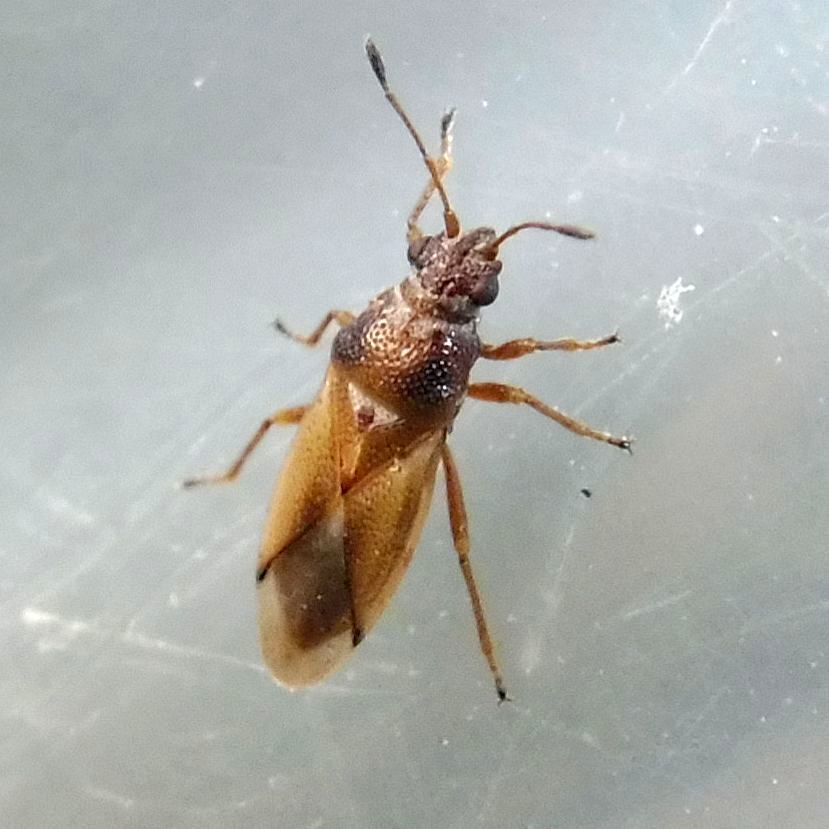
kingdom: Animalia
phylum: Arthropoda
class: Insecta
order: Hemiptera
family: Cymidae
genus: Cymus
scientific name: Cymus melanocephalus
